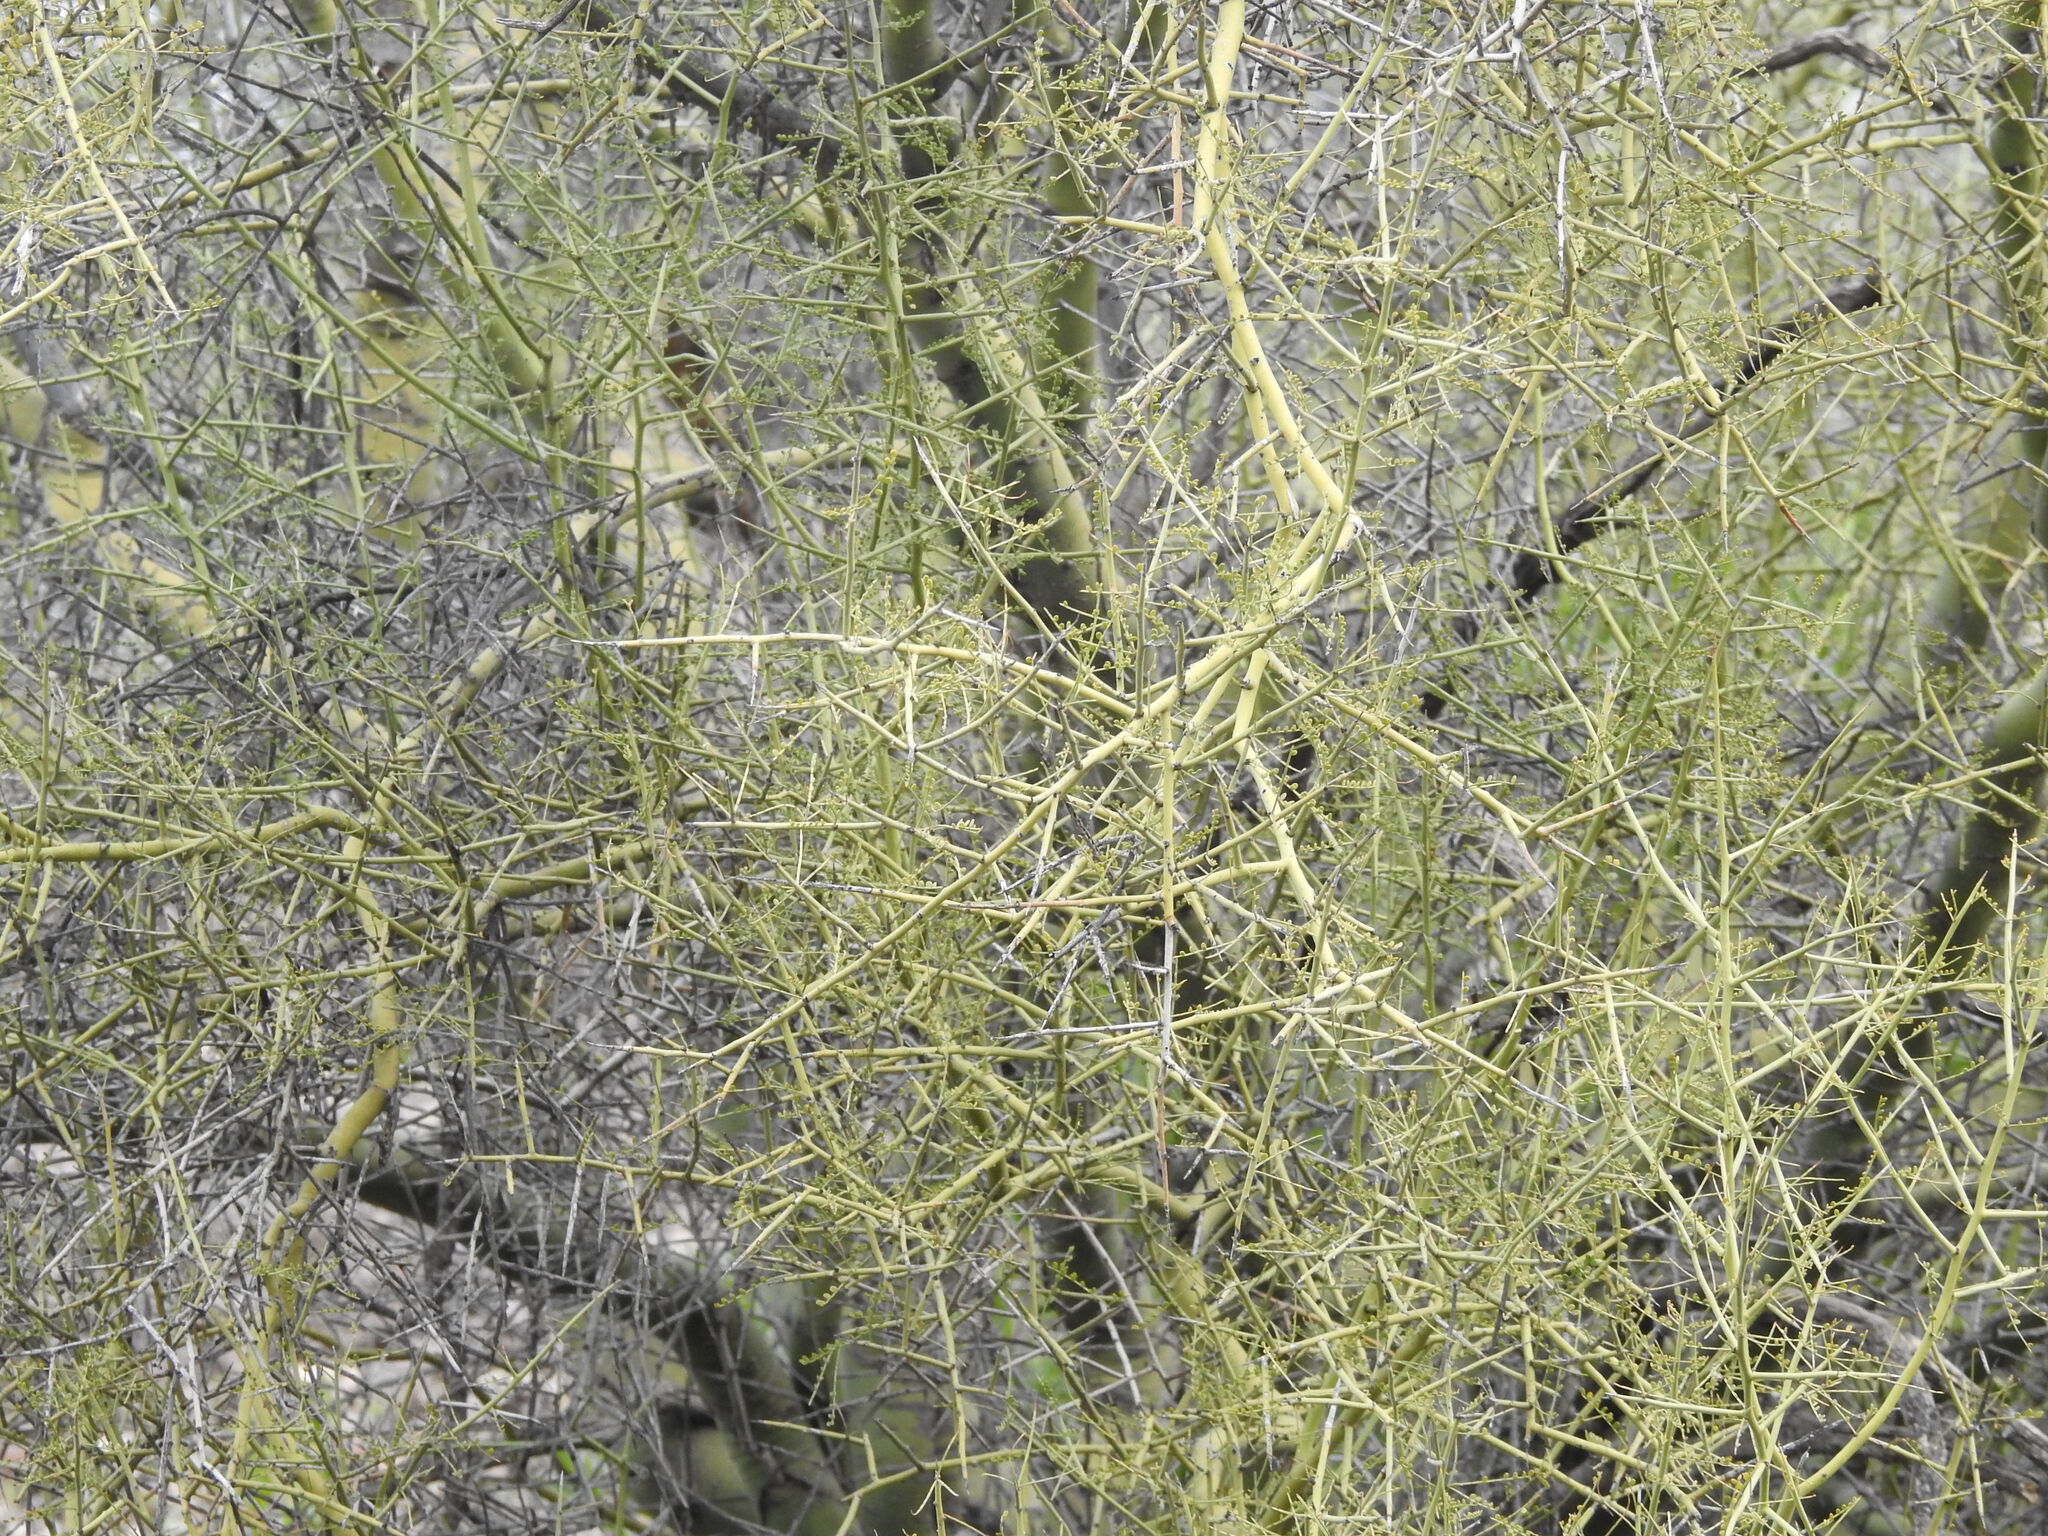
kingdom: Plantae
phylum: Tracheophyta
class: Magnoliopsida
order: Fabales
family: Fabaceae
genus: Parkinsonia
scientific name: Parkinsonia microphylla
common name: Yellow paloverde
